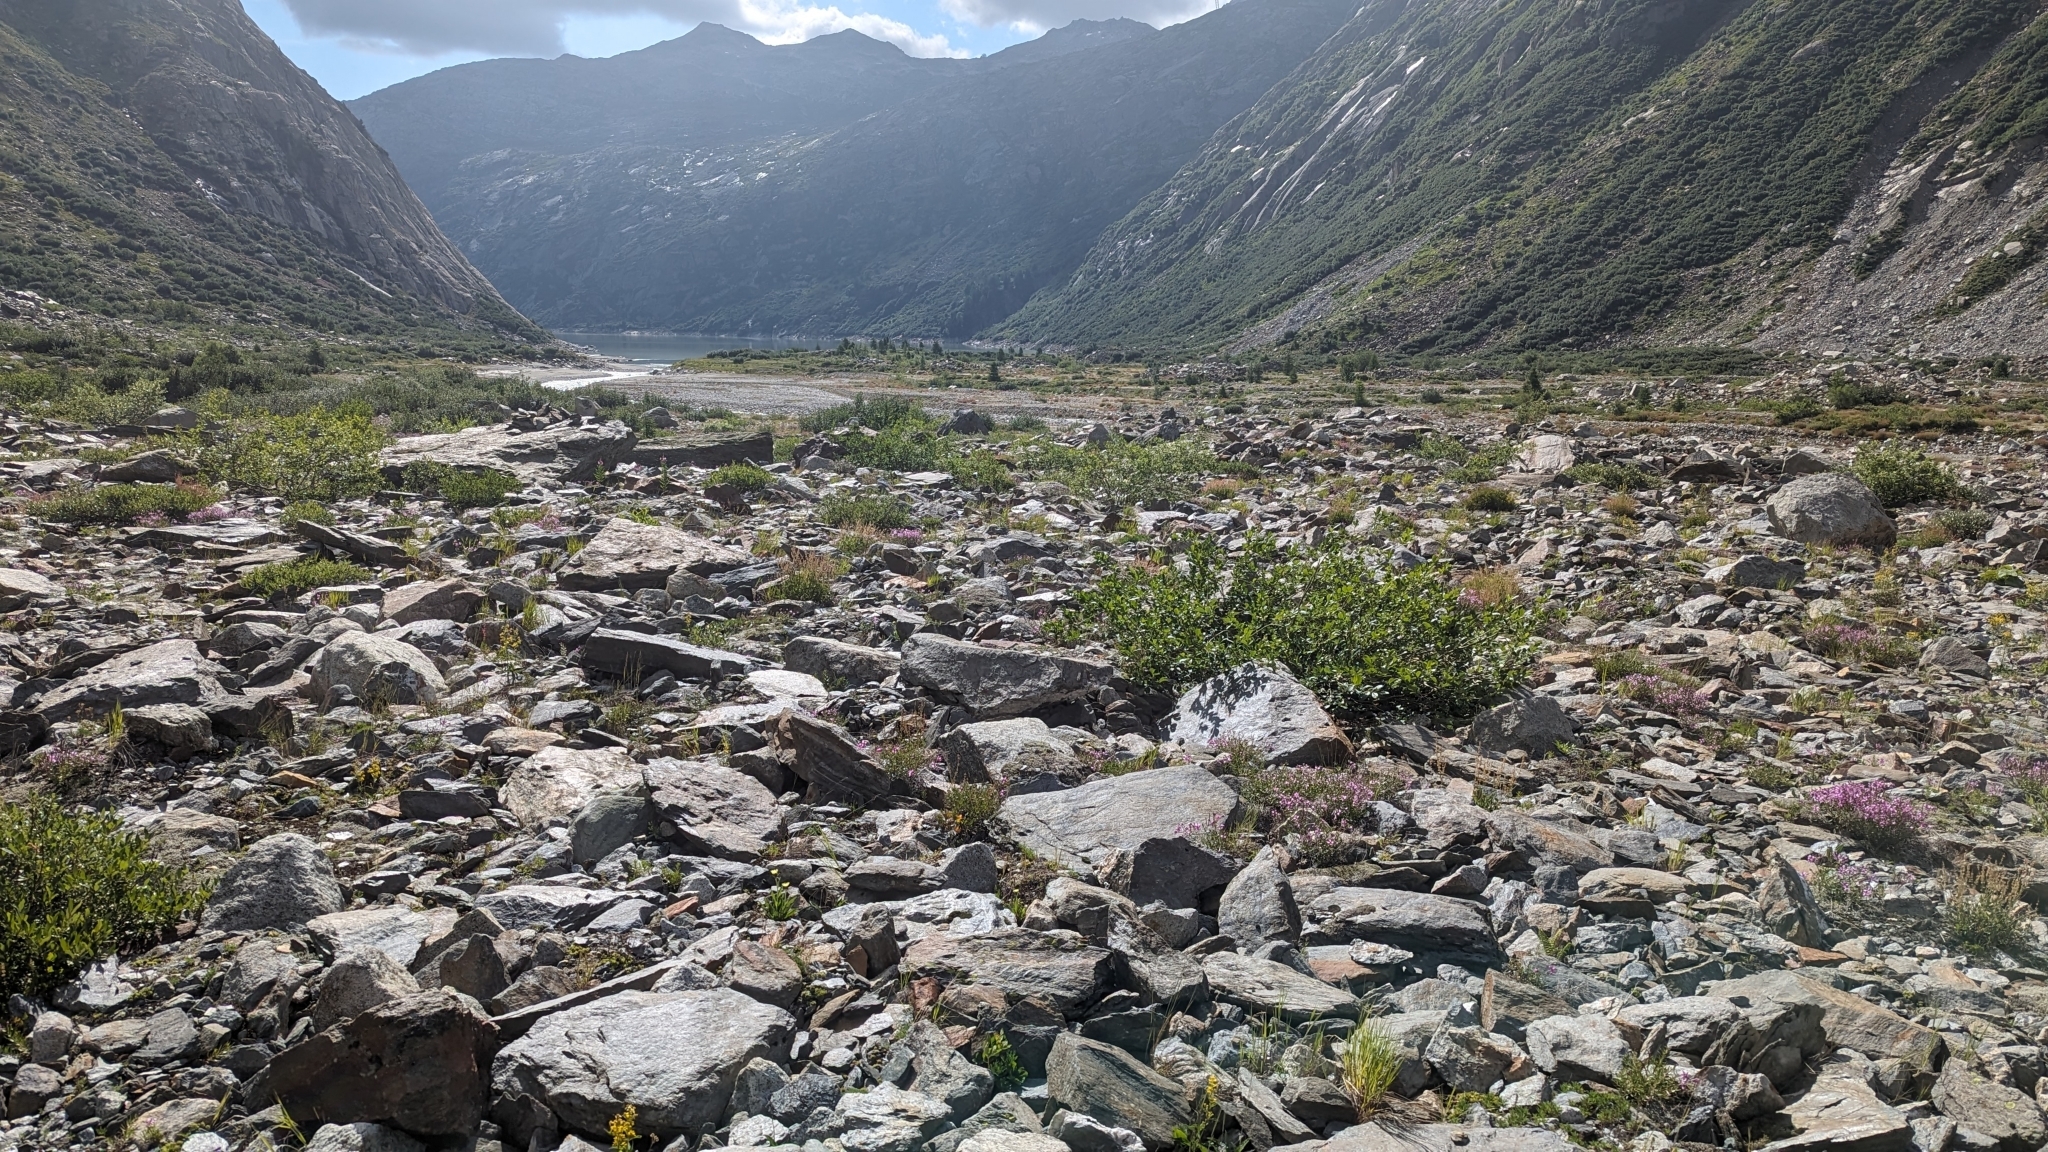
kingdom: Animalia
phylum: Arthropoda
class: Insecta
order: Hymenoptera
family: Formicidae
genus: Manica
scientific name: Manica rubida
